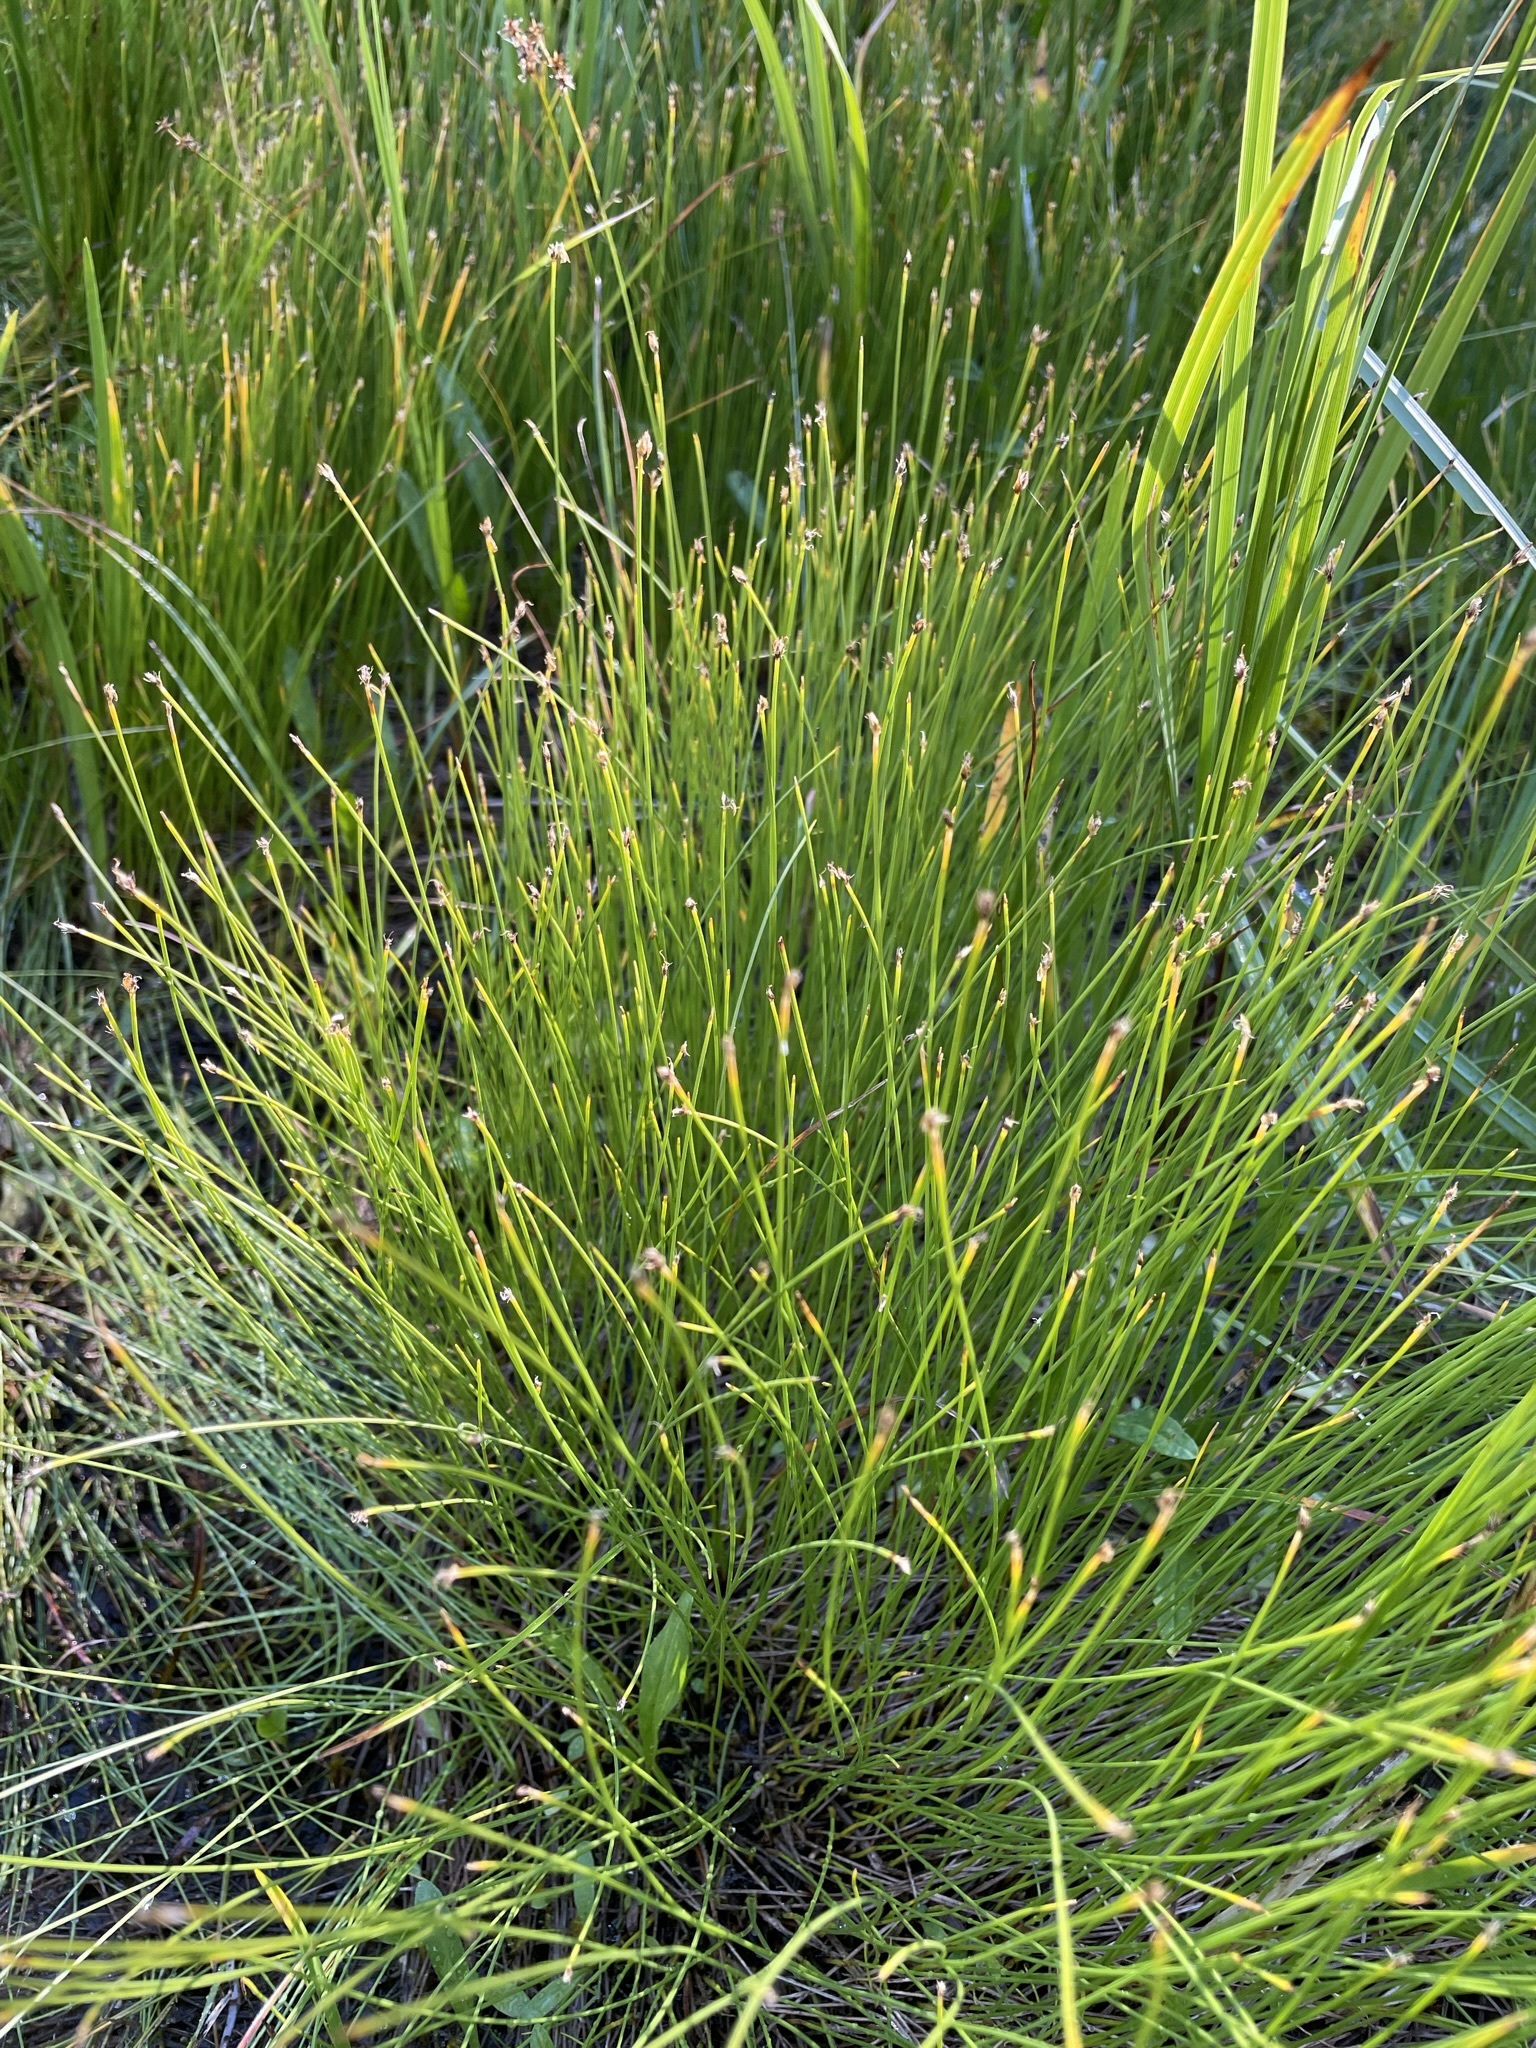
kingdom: Plantae
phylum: Tracheophyta
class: Liliopsida
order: Poales
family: Cyperaceae
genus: Trichophorum
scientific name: Trichophorum cespitosum
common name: Cespitose bulrush
